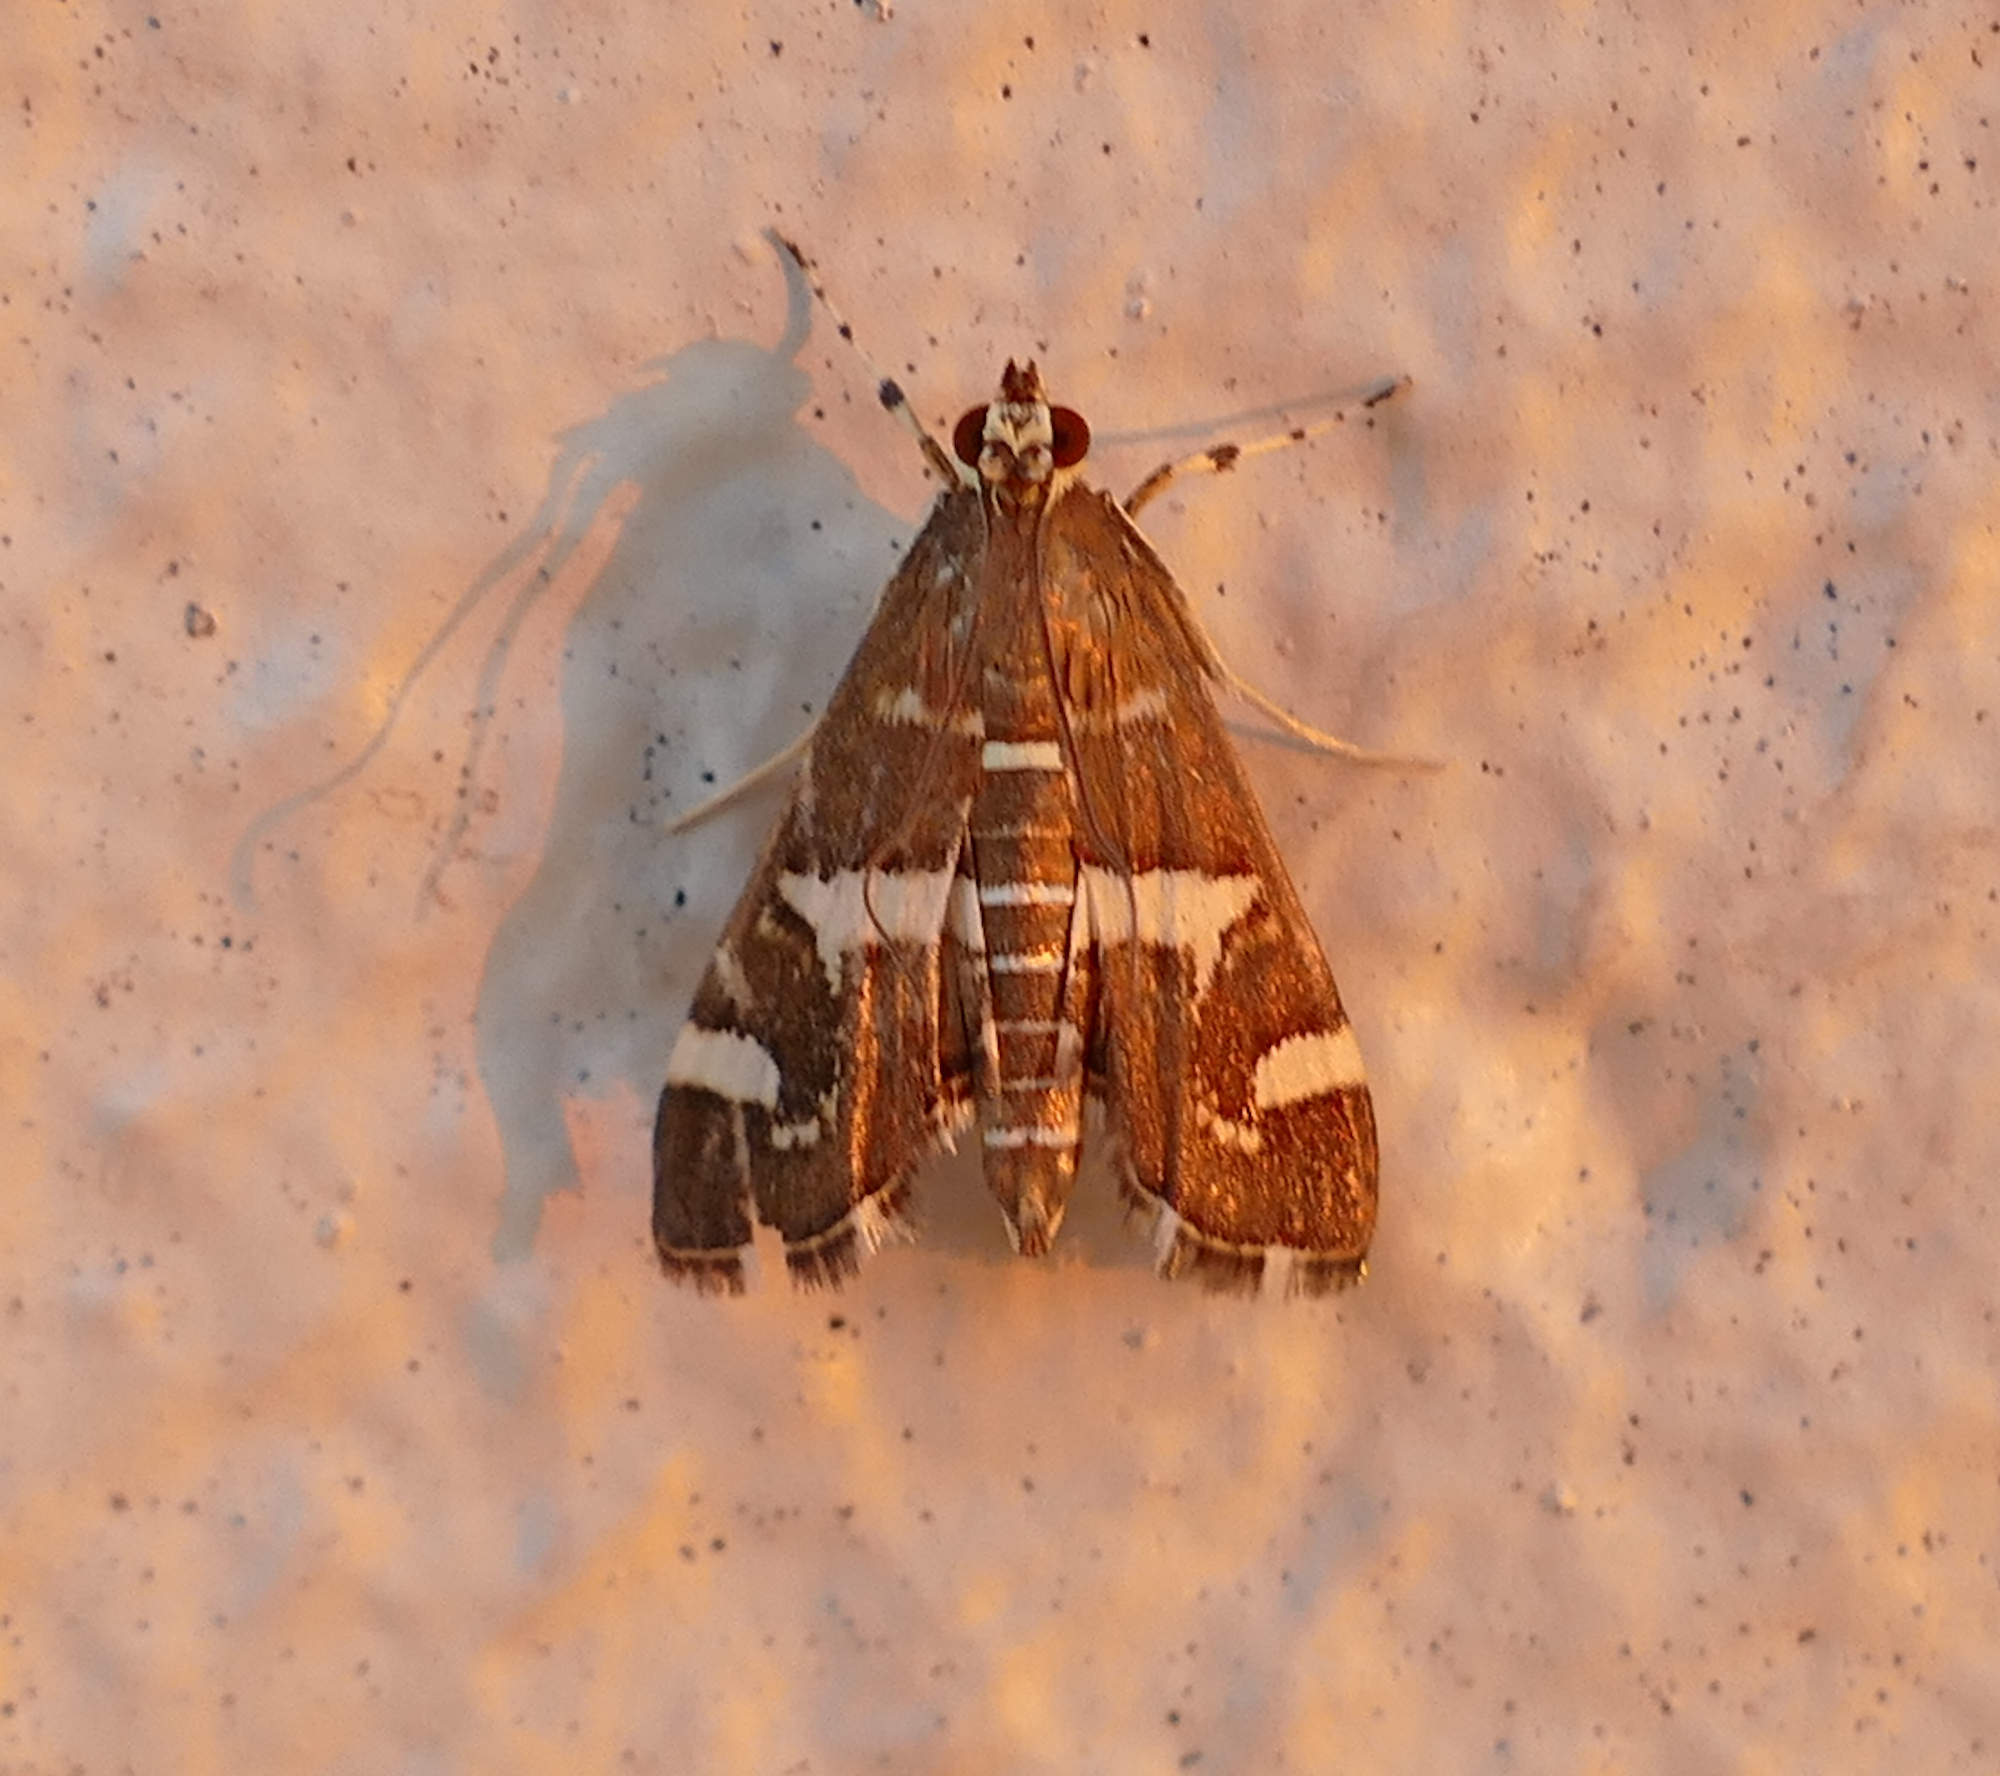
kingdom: Animalia
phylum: Arthropoda
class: Insecta
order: Lepidoptera
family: Crambidae
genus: Spoladea
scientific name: Spoladea recurvalis
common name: Beet webworm moth
